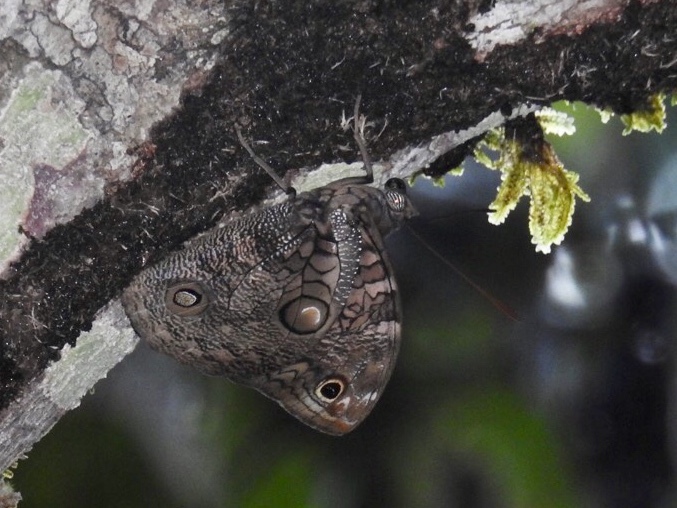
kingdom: Animalia
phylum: Arthropoda
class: Insecta
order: Lepidoptera
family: Nymphalidae
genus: Opsiphanes
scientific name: Opsiphanes cassiae
